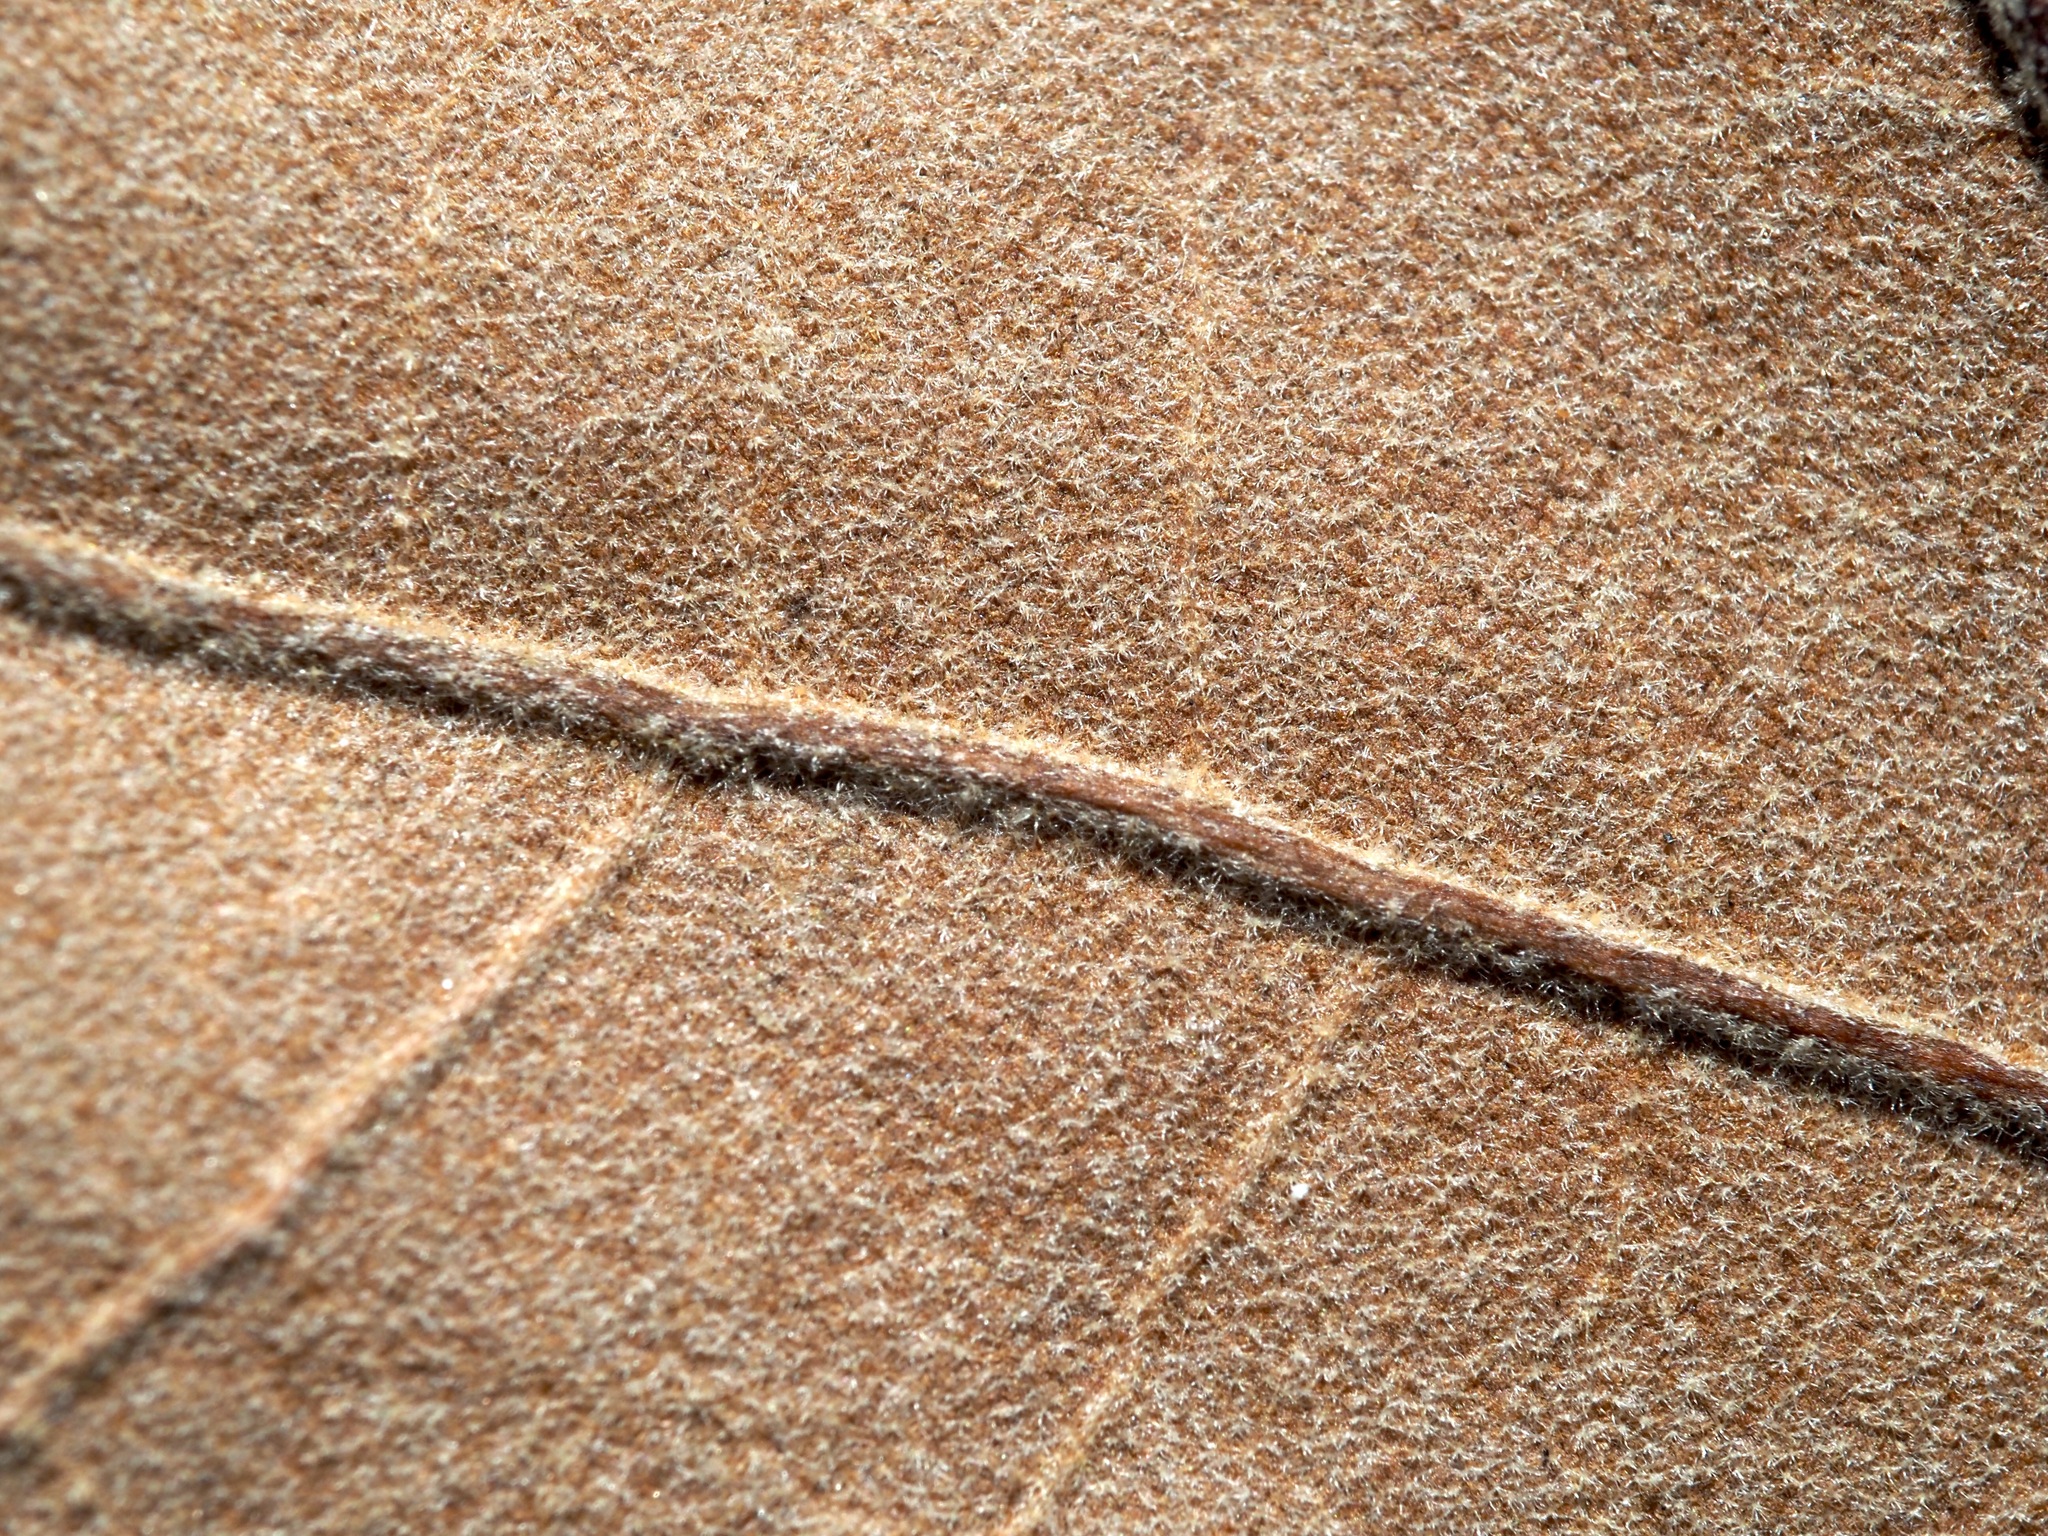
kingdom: Plantae
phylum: Tracheophyta
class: Magnoliopsida
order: Fagales
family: Fagaceae
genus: Quercus
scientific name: Quercus falcata
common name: Southern red oak
